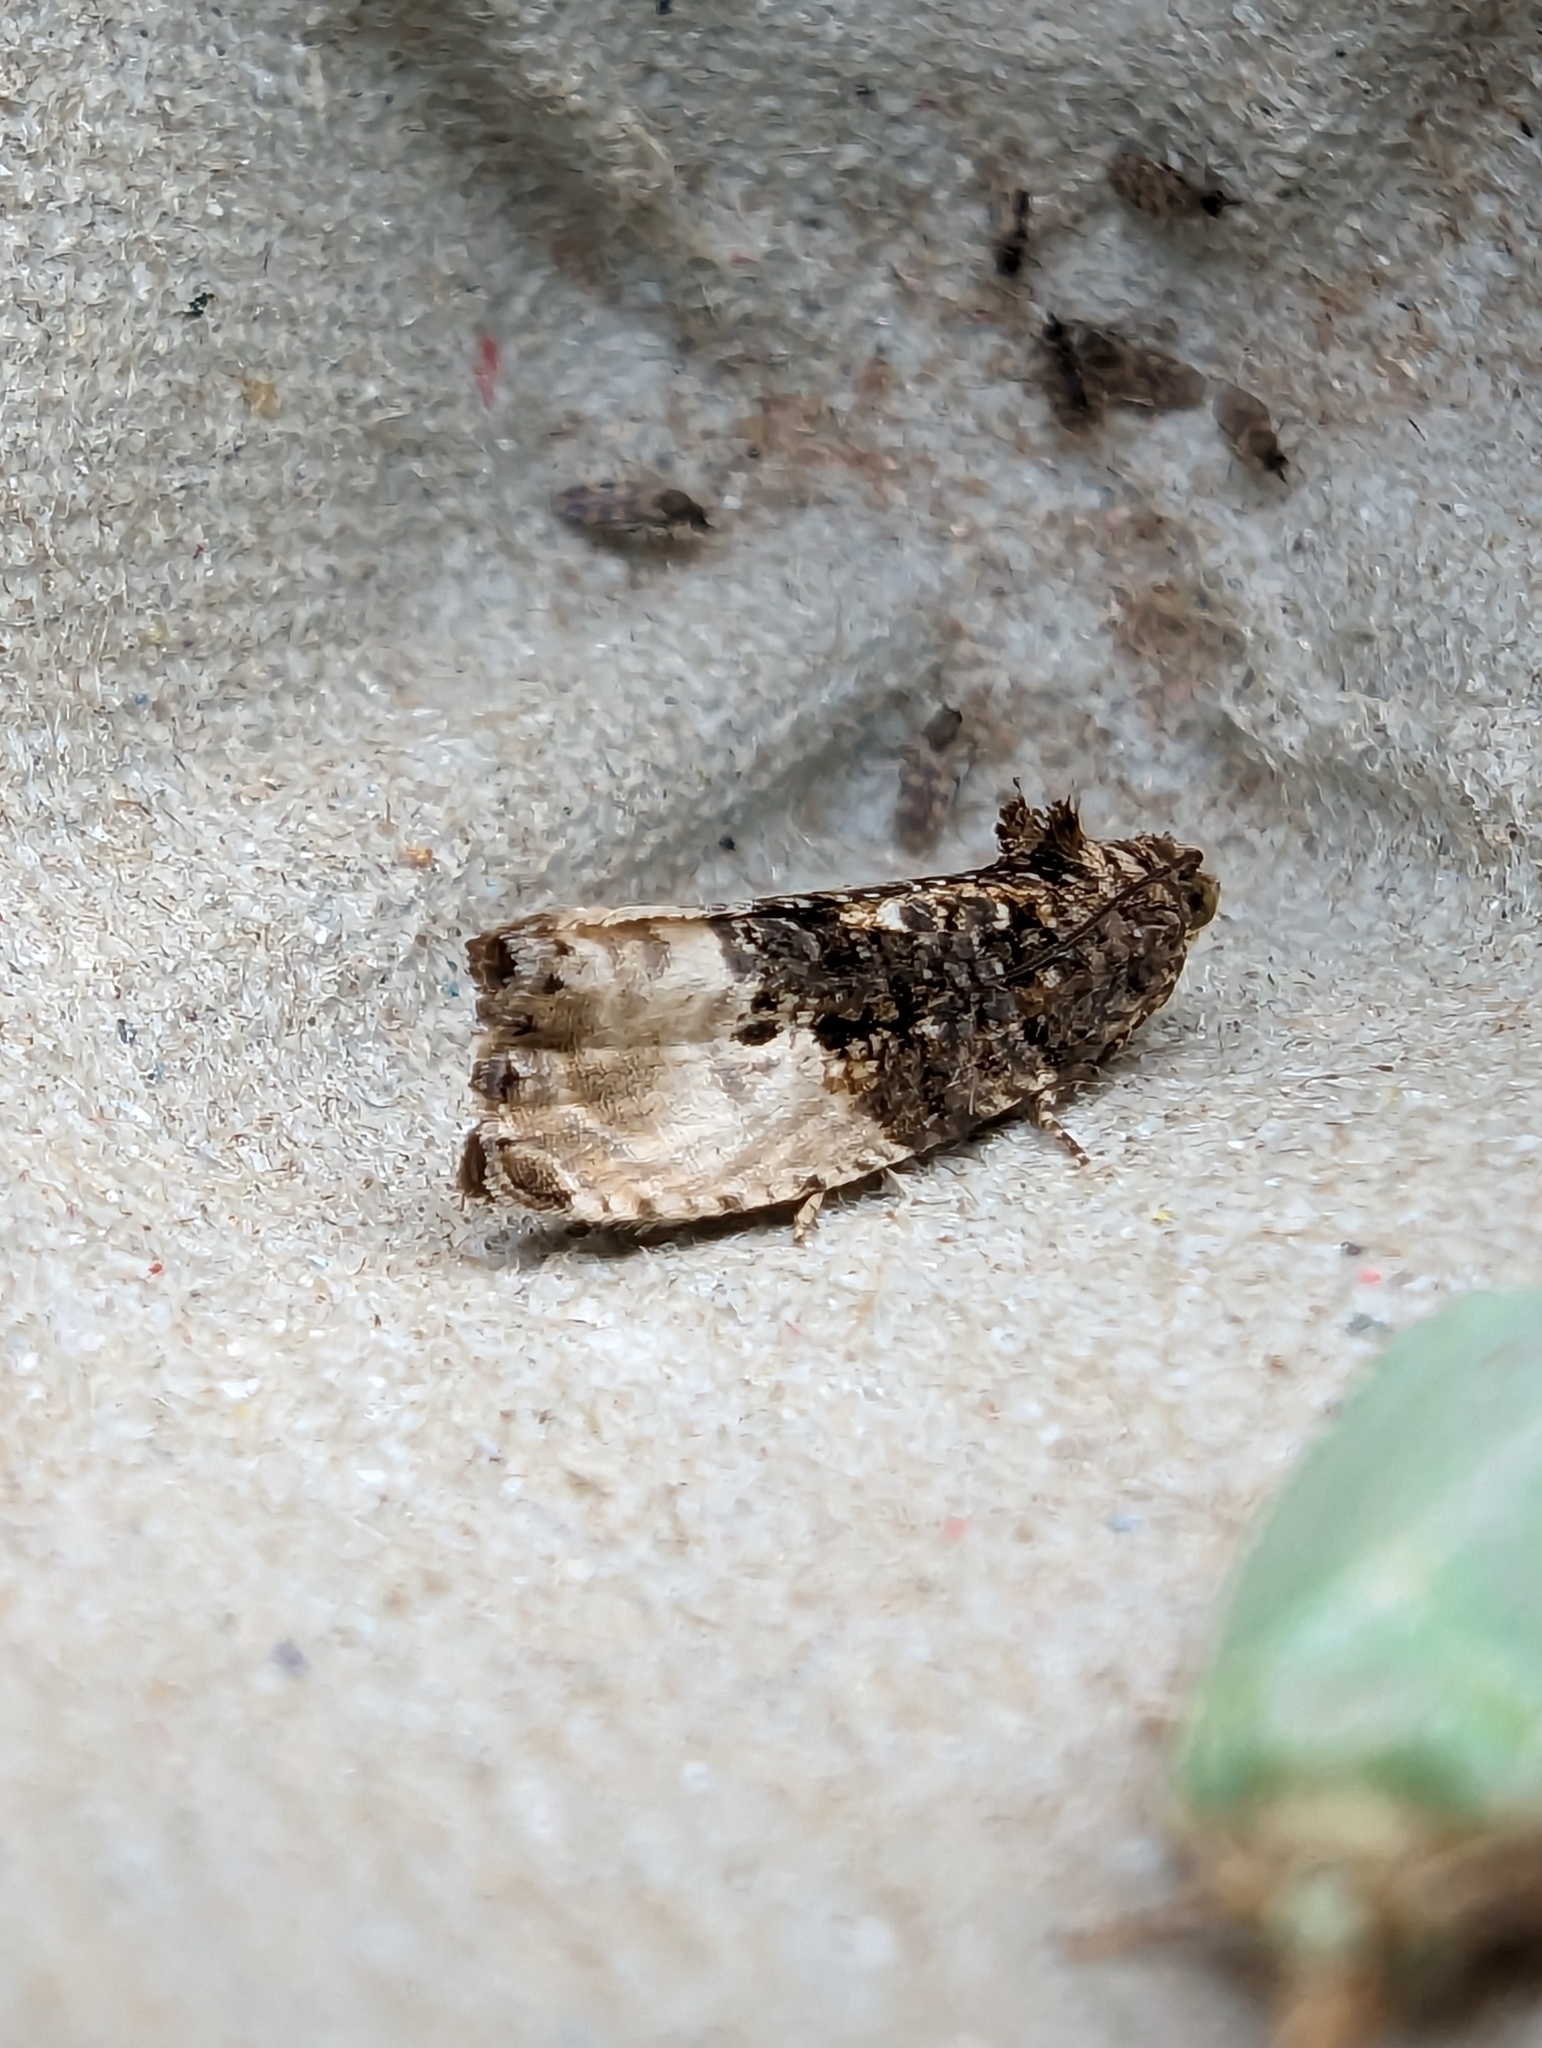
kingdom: Animalia
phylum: Arthropoda
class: Insecta
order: Lepidoptera
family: Tortricidae
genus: Hedya
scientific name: Hedya nubiferana
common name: Marbled orchard tortrix
